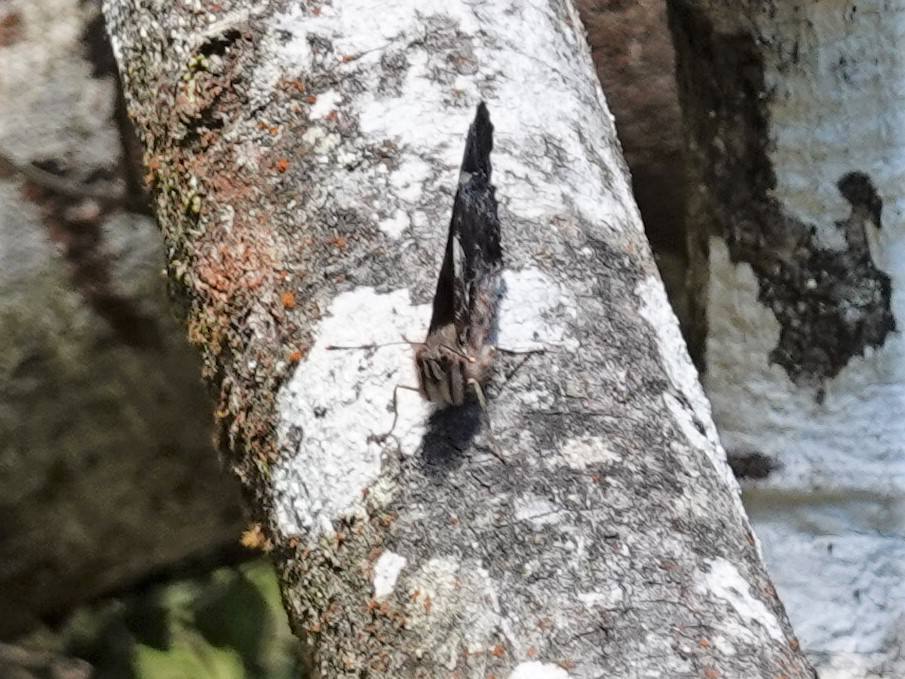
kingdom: Animalia
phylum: Arthropoda
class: Insecta
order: Lepidoptera
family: Nymphalidae
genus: Vanessa
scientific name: Vanessa itea
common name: Yellow admiral
